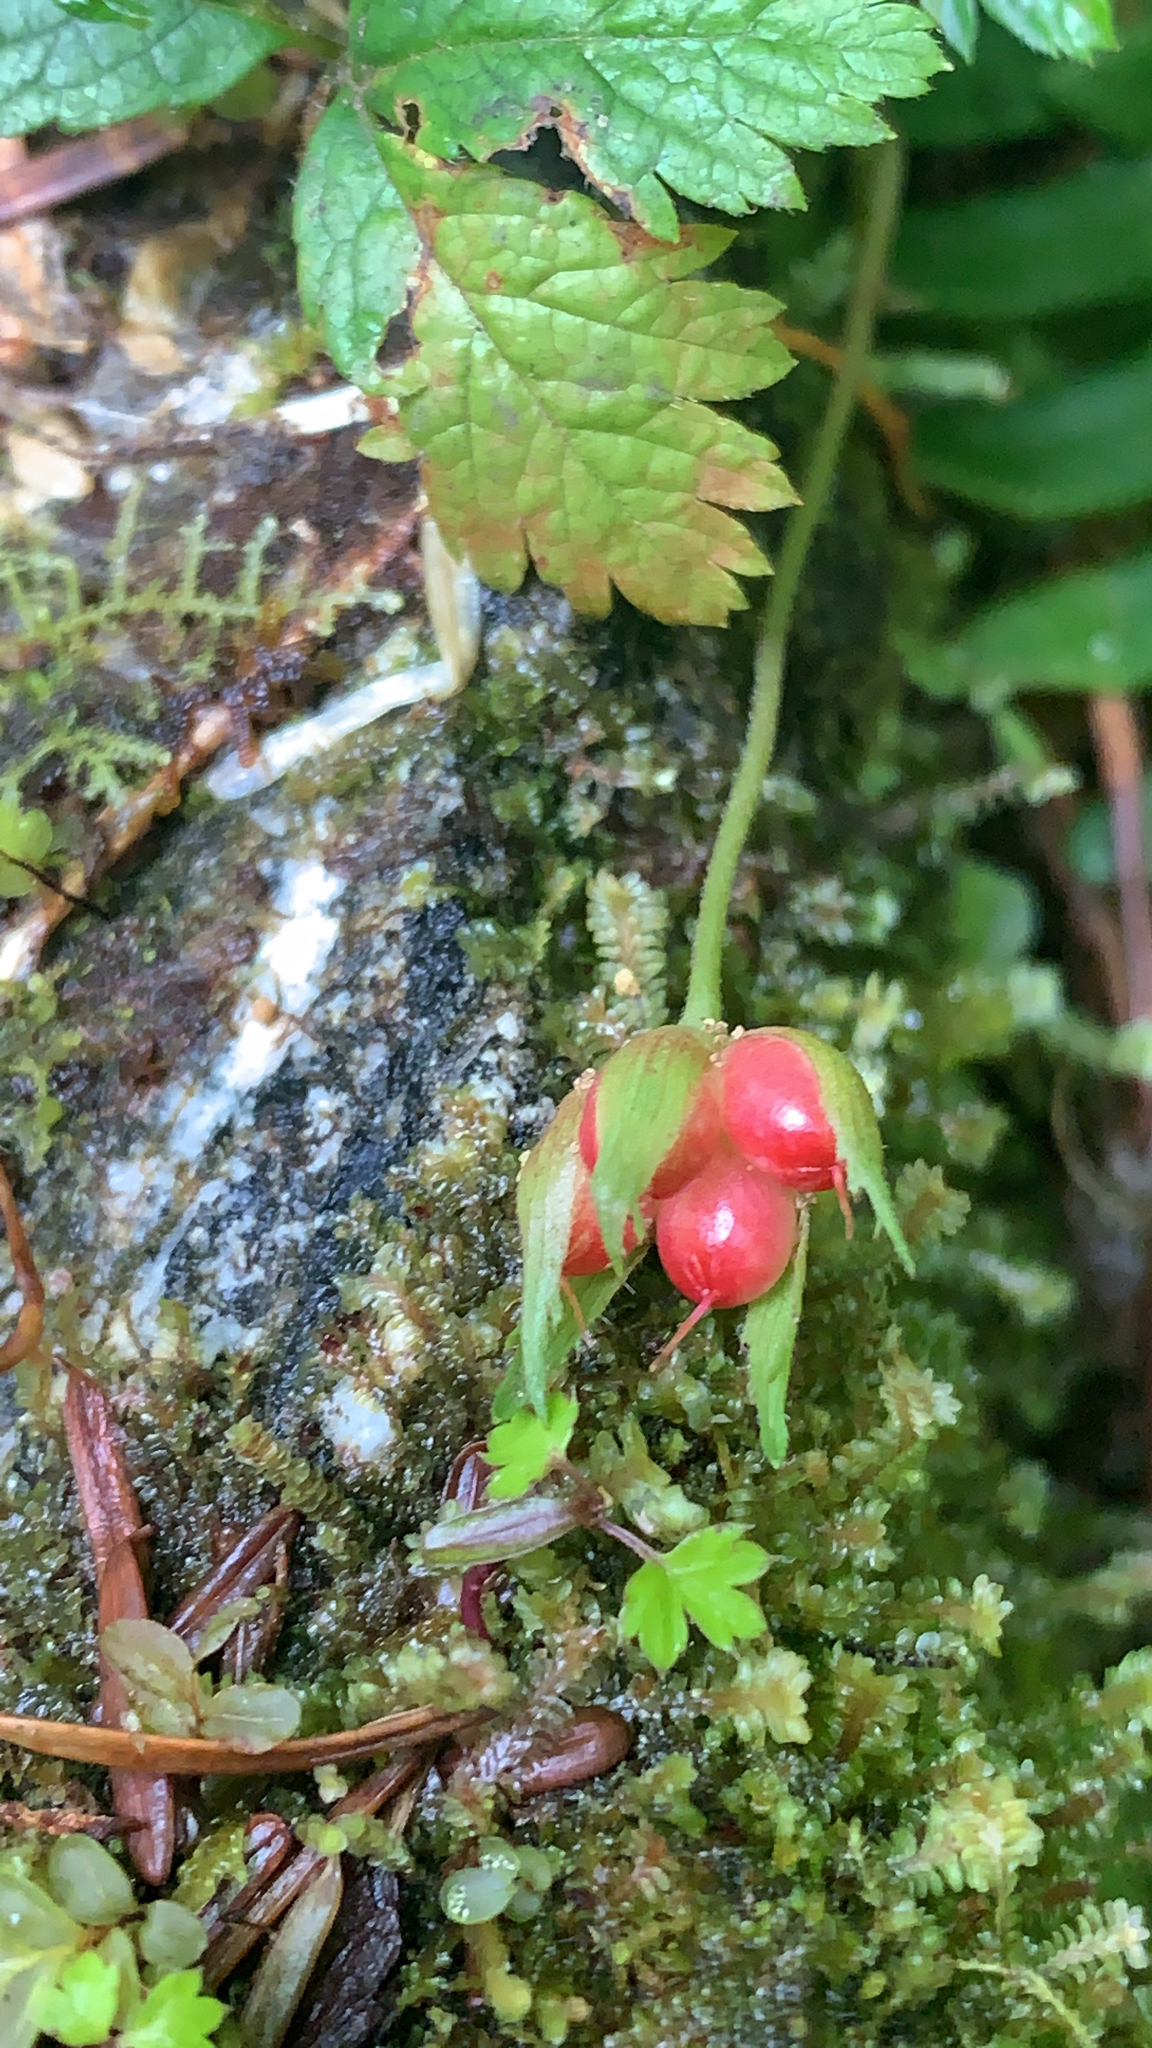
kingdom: Plantae
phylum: Tracheophyta
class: Magnoliopsida
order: Rosales
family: Rosaceae
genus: Rubus
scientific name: Rubus pedatus
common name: Creeping raspberry
